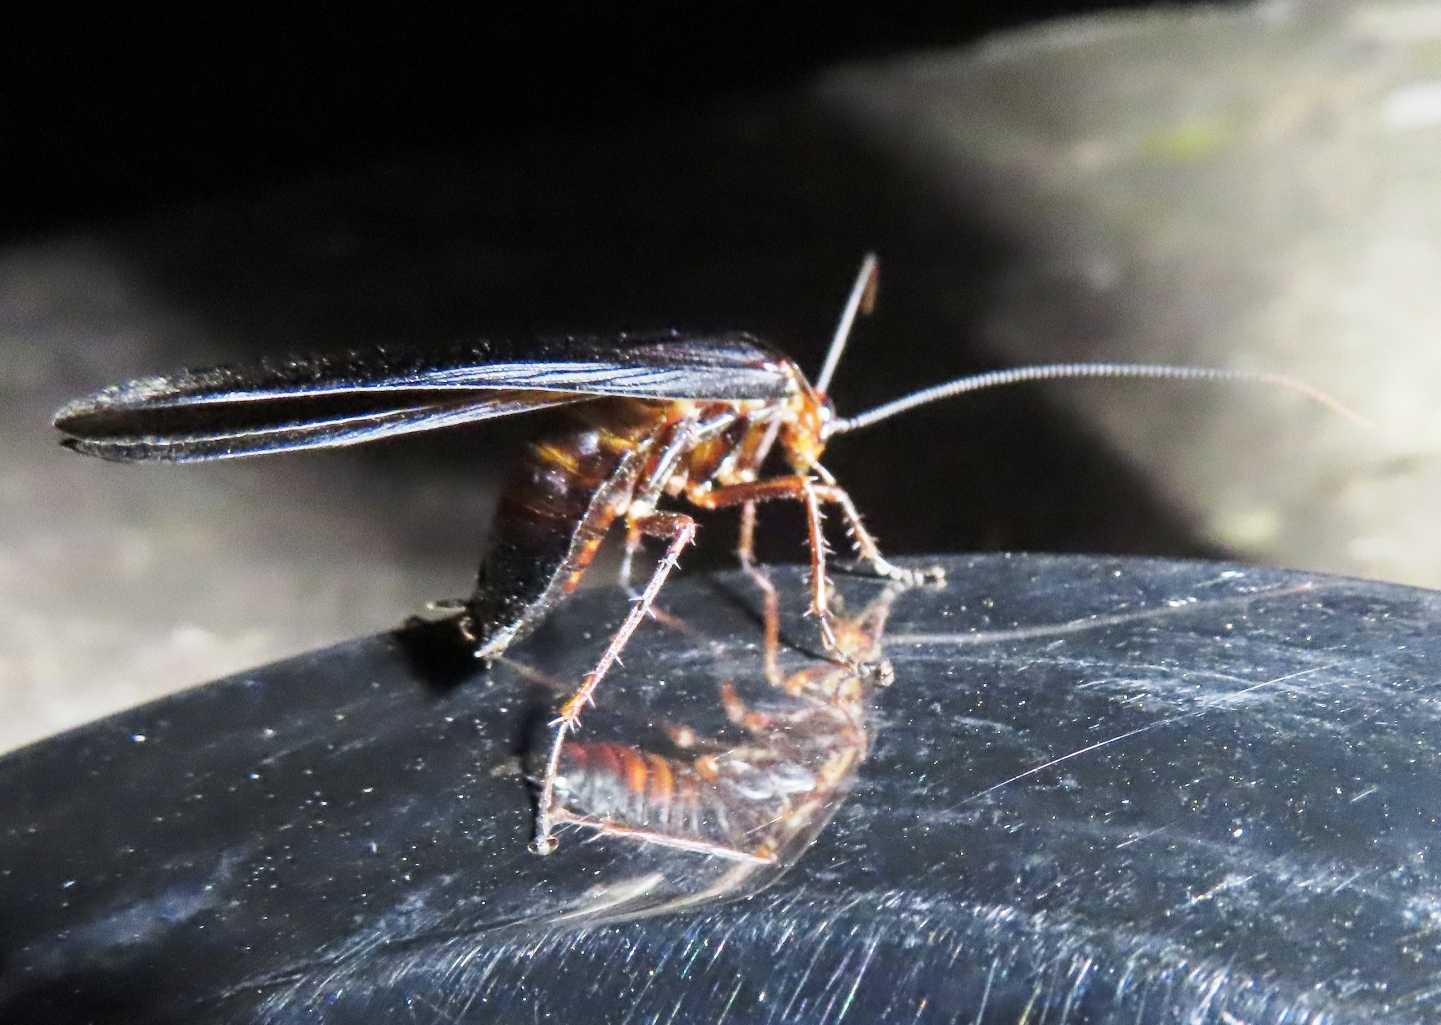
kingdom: Animalia
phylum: Arthropoda
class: Insecta
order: Blattodea
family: Blattidae
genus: Deropeltis
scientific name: Deropeltis erythrocephala
